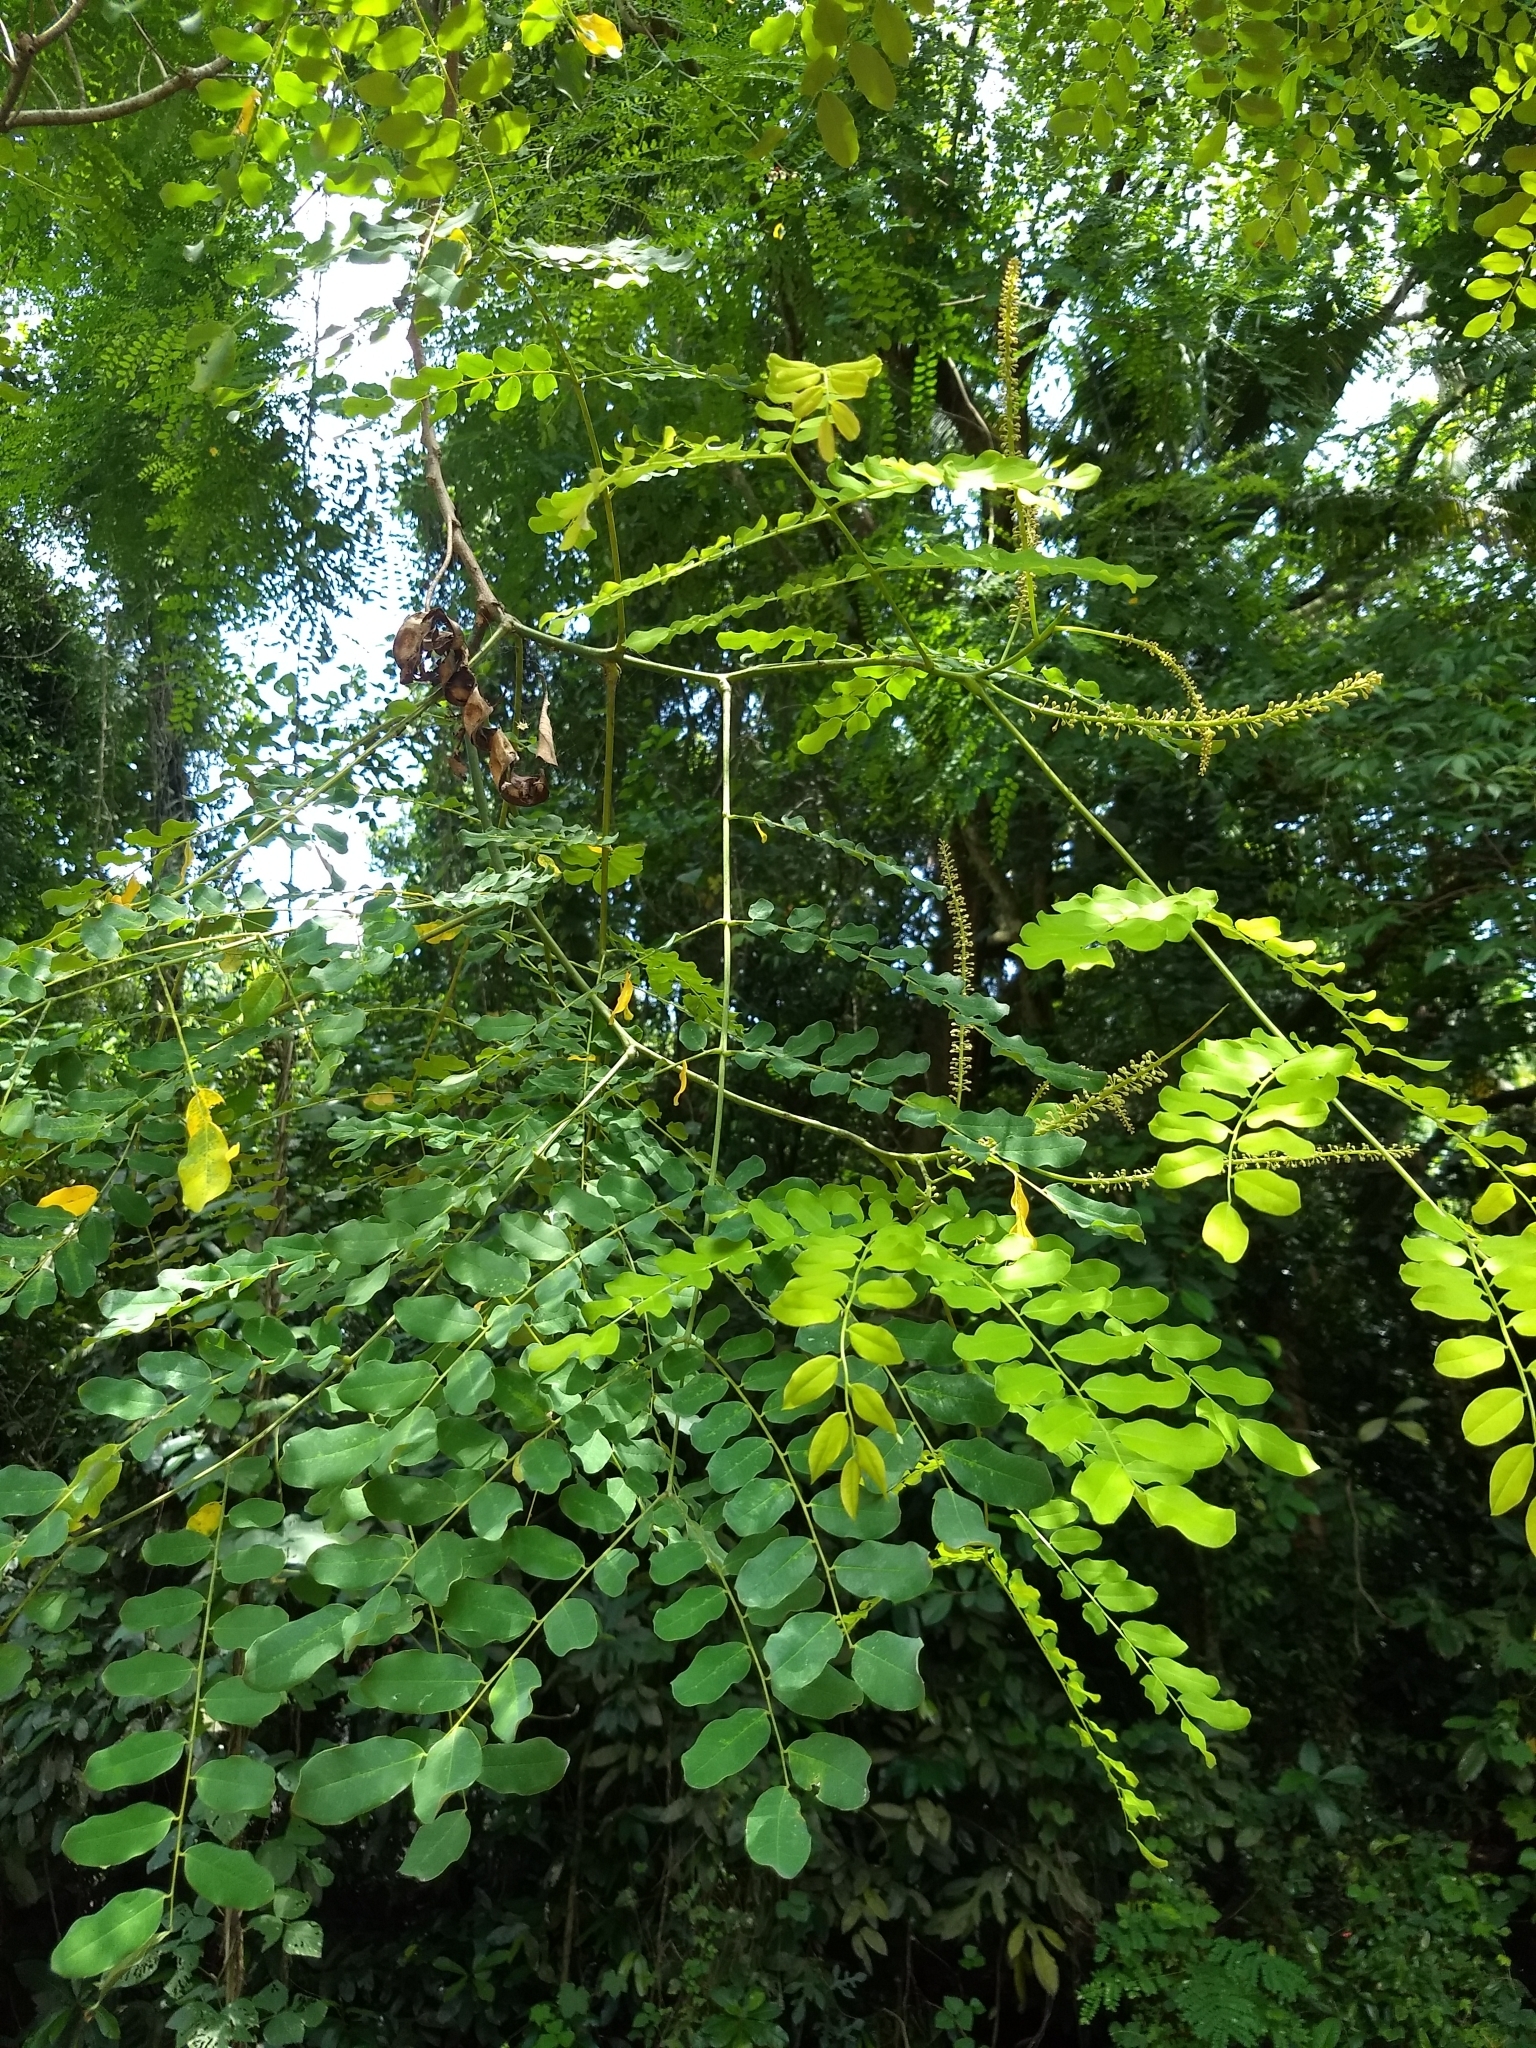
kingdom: Plantae
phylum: Tracheophyta
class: Magnoliopsida
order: Fabales
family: Fabaceae
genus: Adenanthera
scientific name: Adenanthera pavonina
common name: Red beadtree
